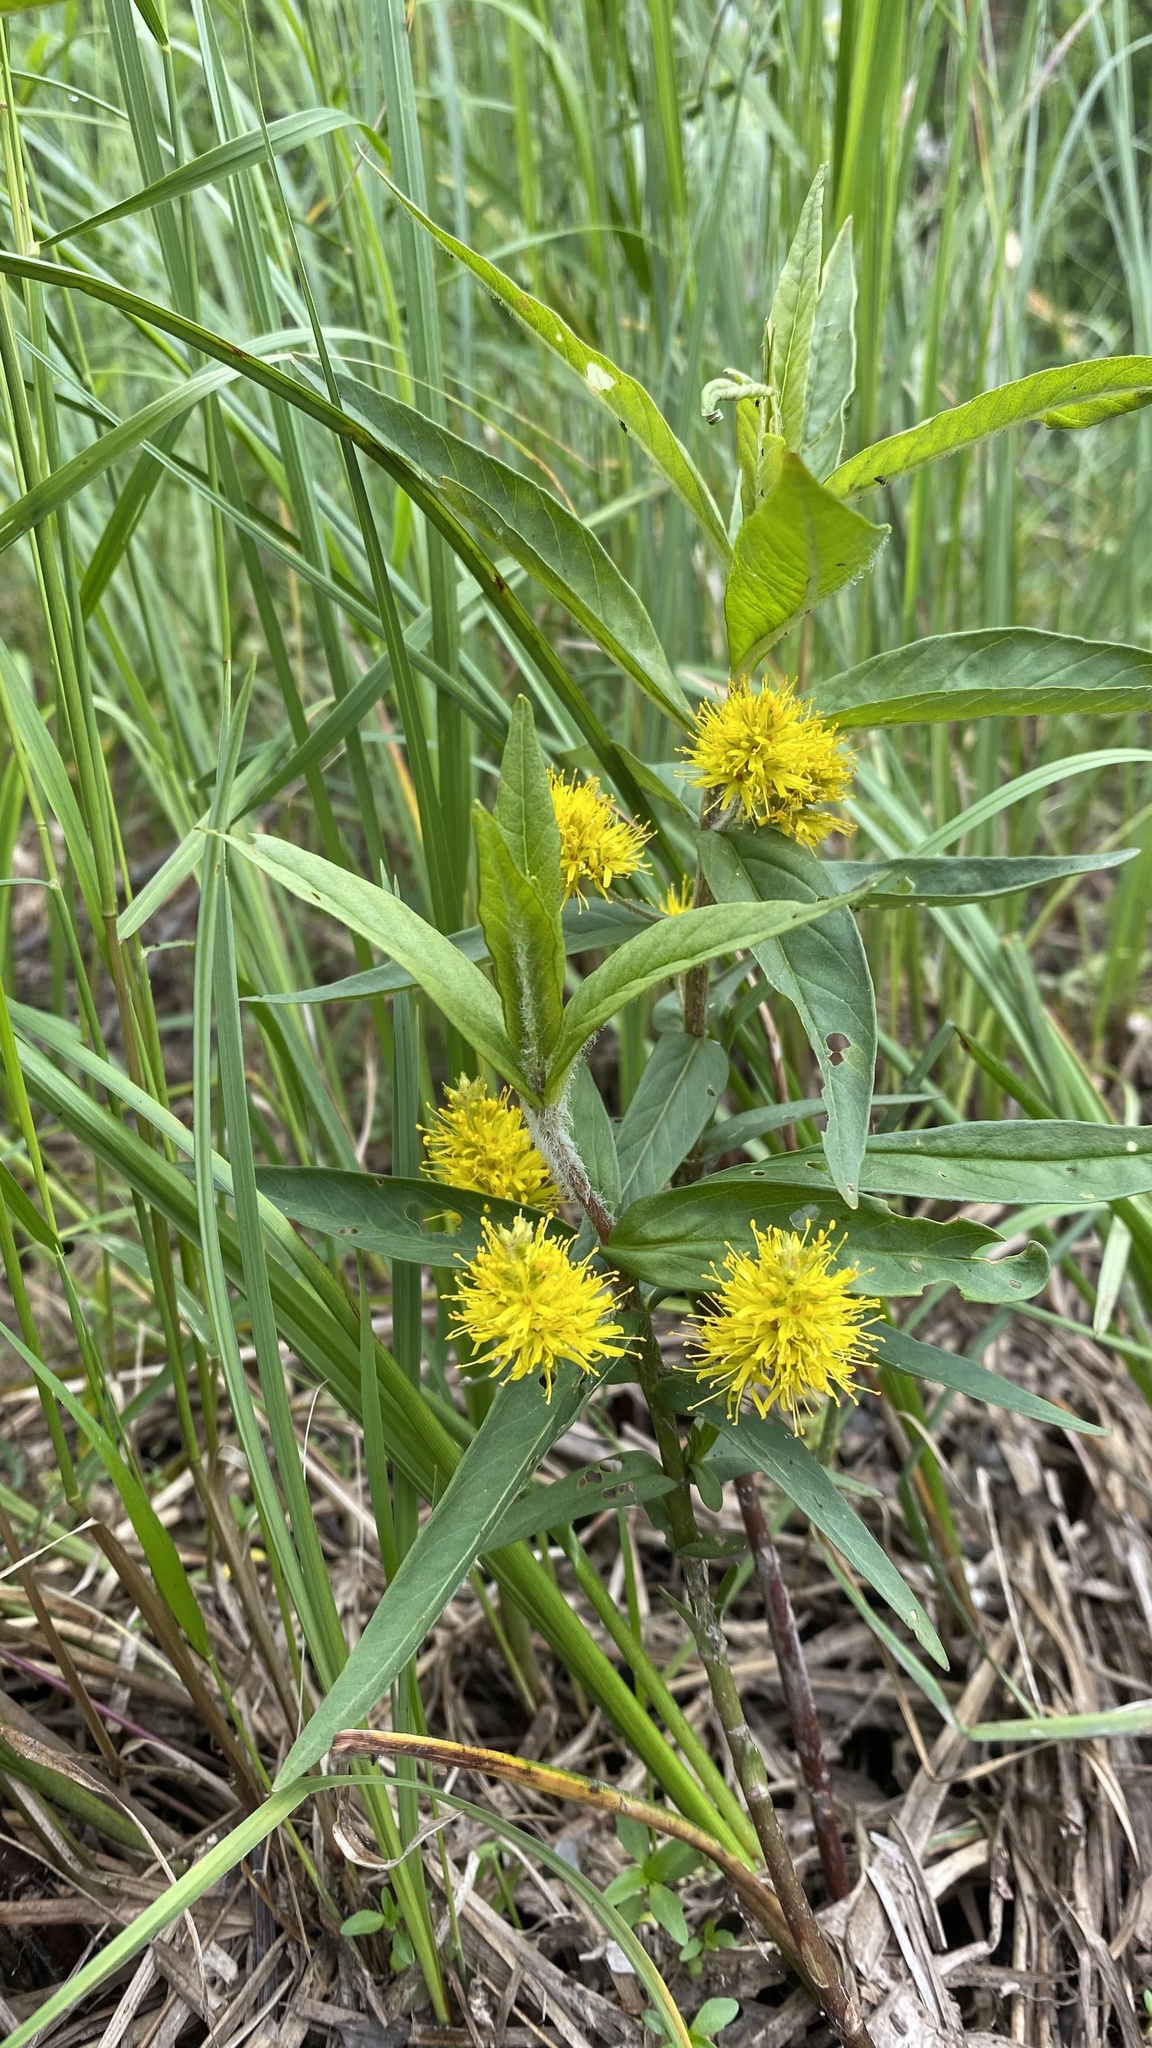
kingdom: Plantae
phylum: Tracheophyta
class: Magnoliopsida
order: Ericales
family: Primulaceae
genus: Lysimachia
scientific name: Lysimachia thyrsiflora
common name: Tufted loosestrife
